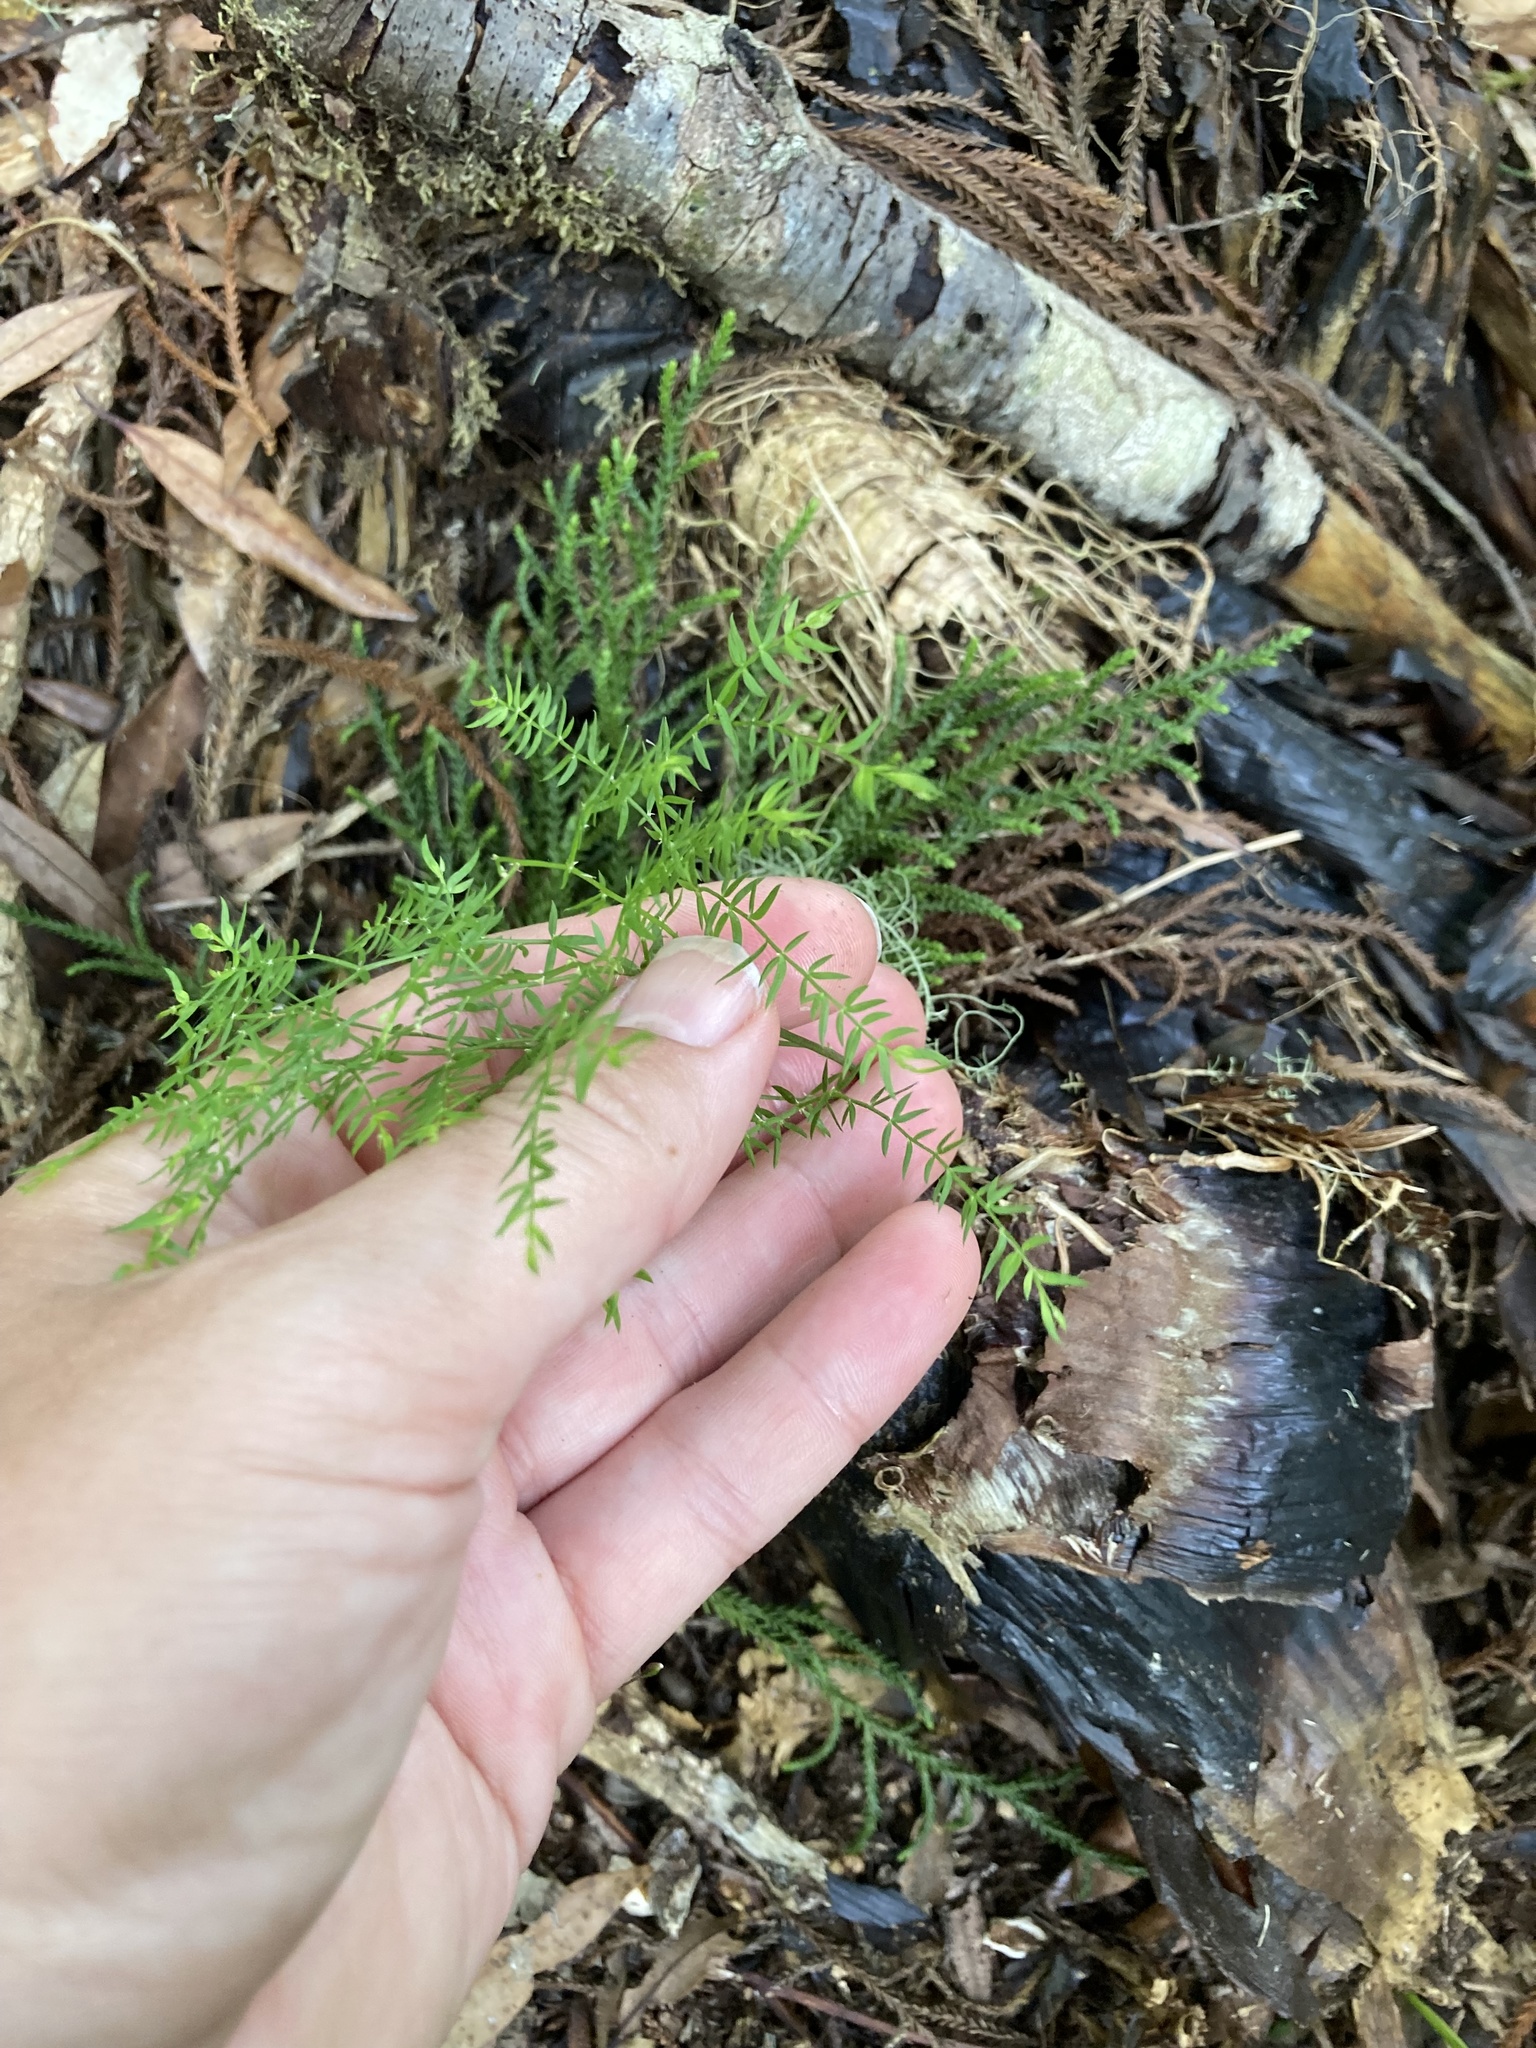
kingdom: Plantae
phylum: Tracheophyta
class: Liliopsida
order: Asparagales
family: Asparagaceae
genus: Asparagus
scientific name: Asparagus scandens
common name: Asparagus-fern
